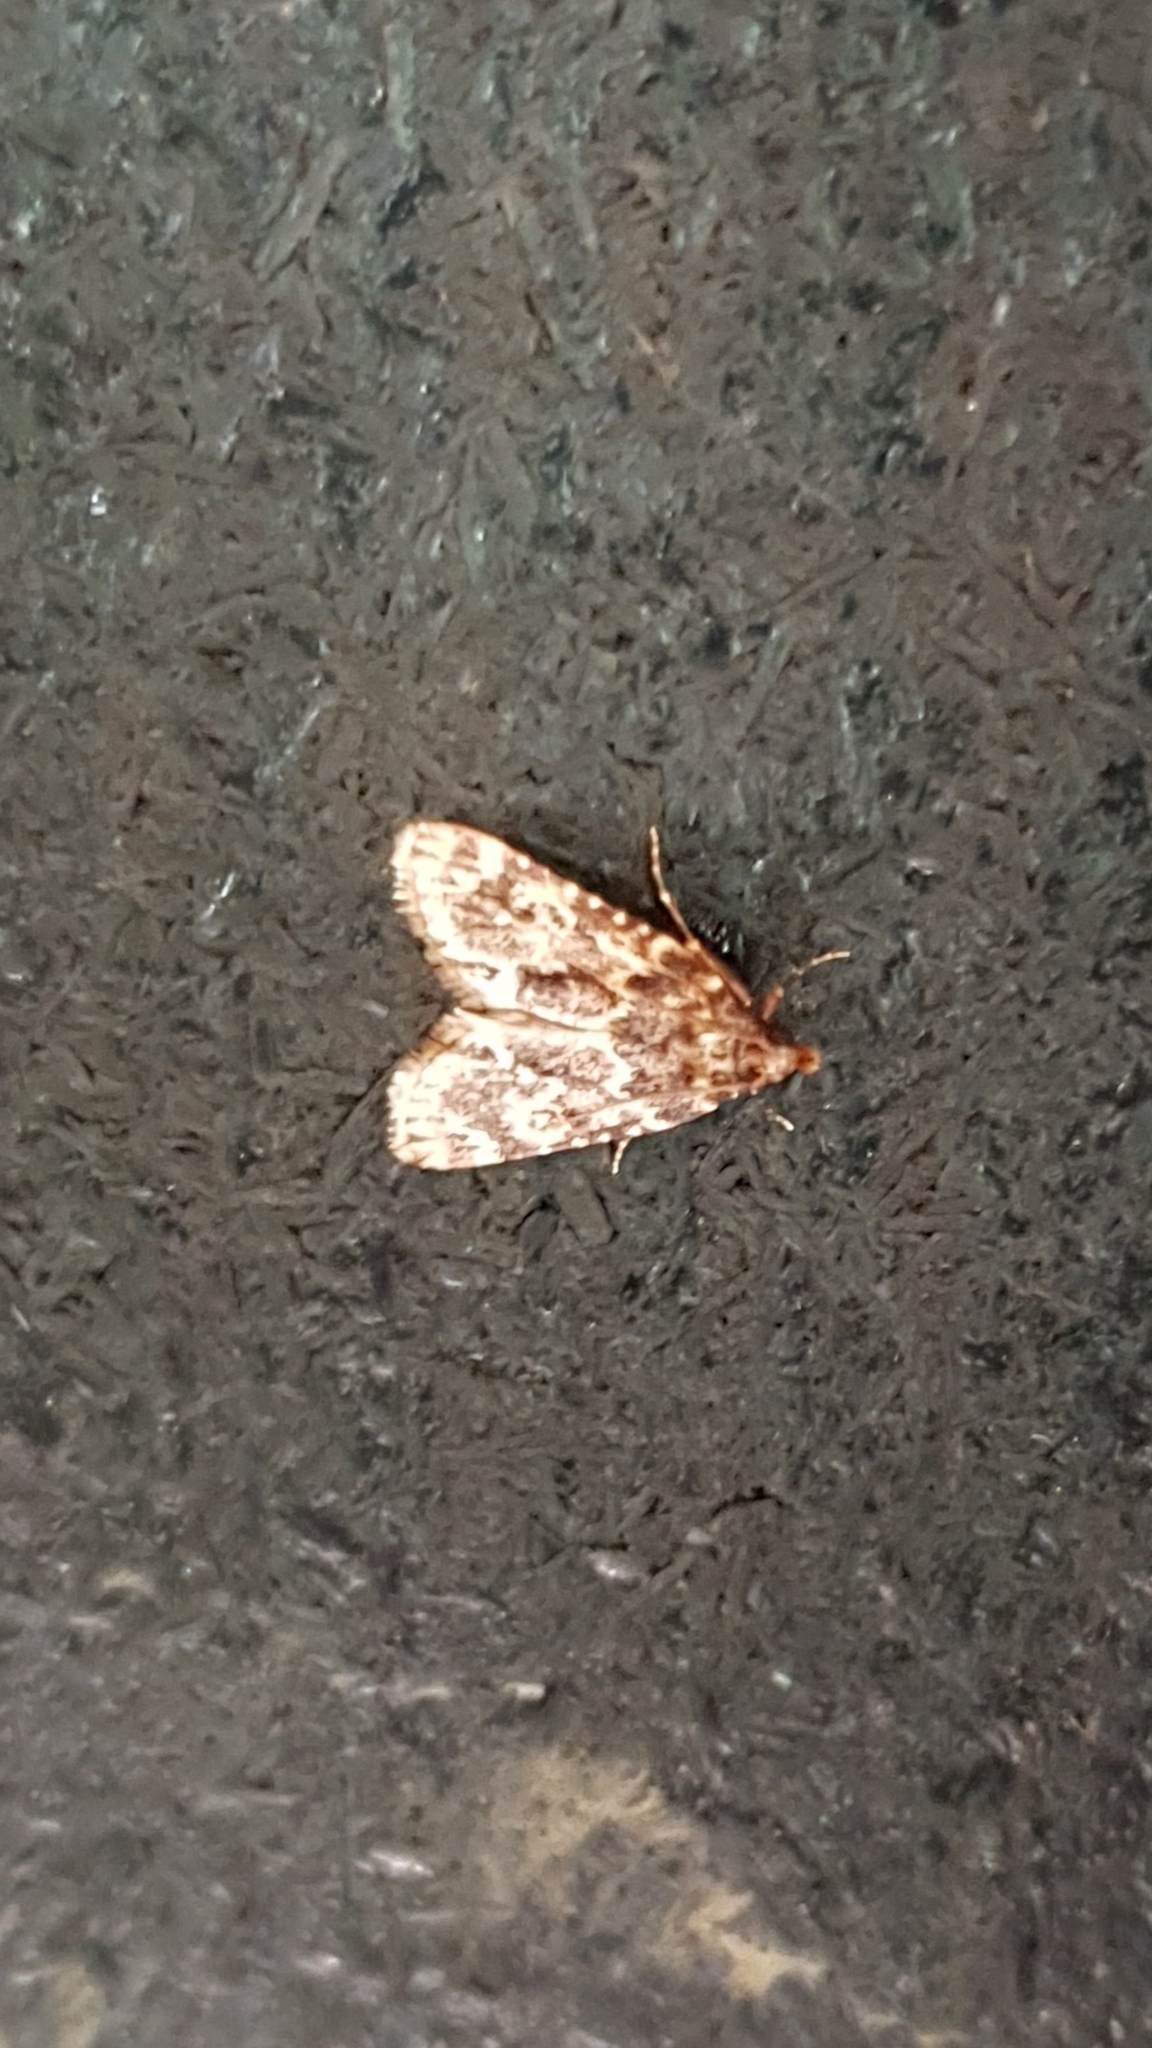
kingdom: Animalia
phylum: Arthropoda
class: Insecta
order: Lepidoptera
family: Pyralidae
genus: Aglossa
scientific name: Aglossa caprealis
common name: Small tabby
